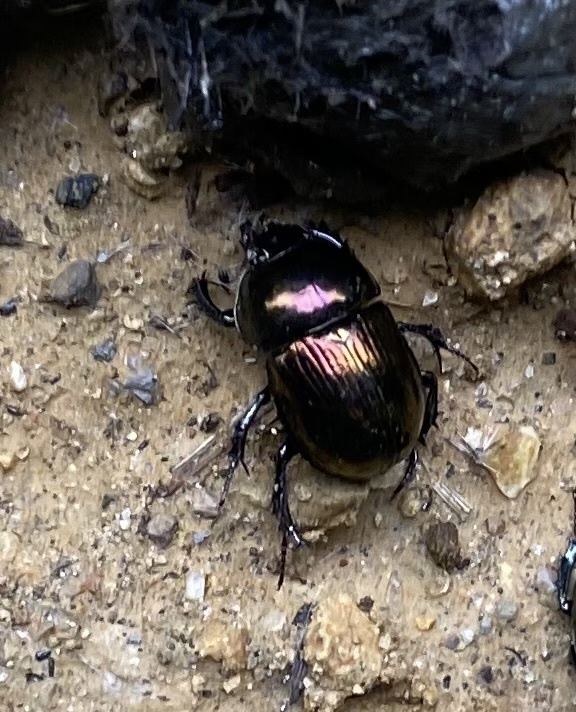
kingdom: Animalia
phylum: Arthropoda
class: Insecta
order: Coleoptera
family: Geotrupidae
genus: Phelotrupes
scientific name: Phelotrupes laevistriatus
